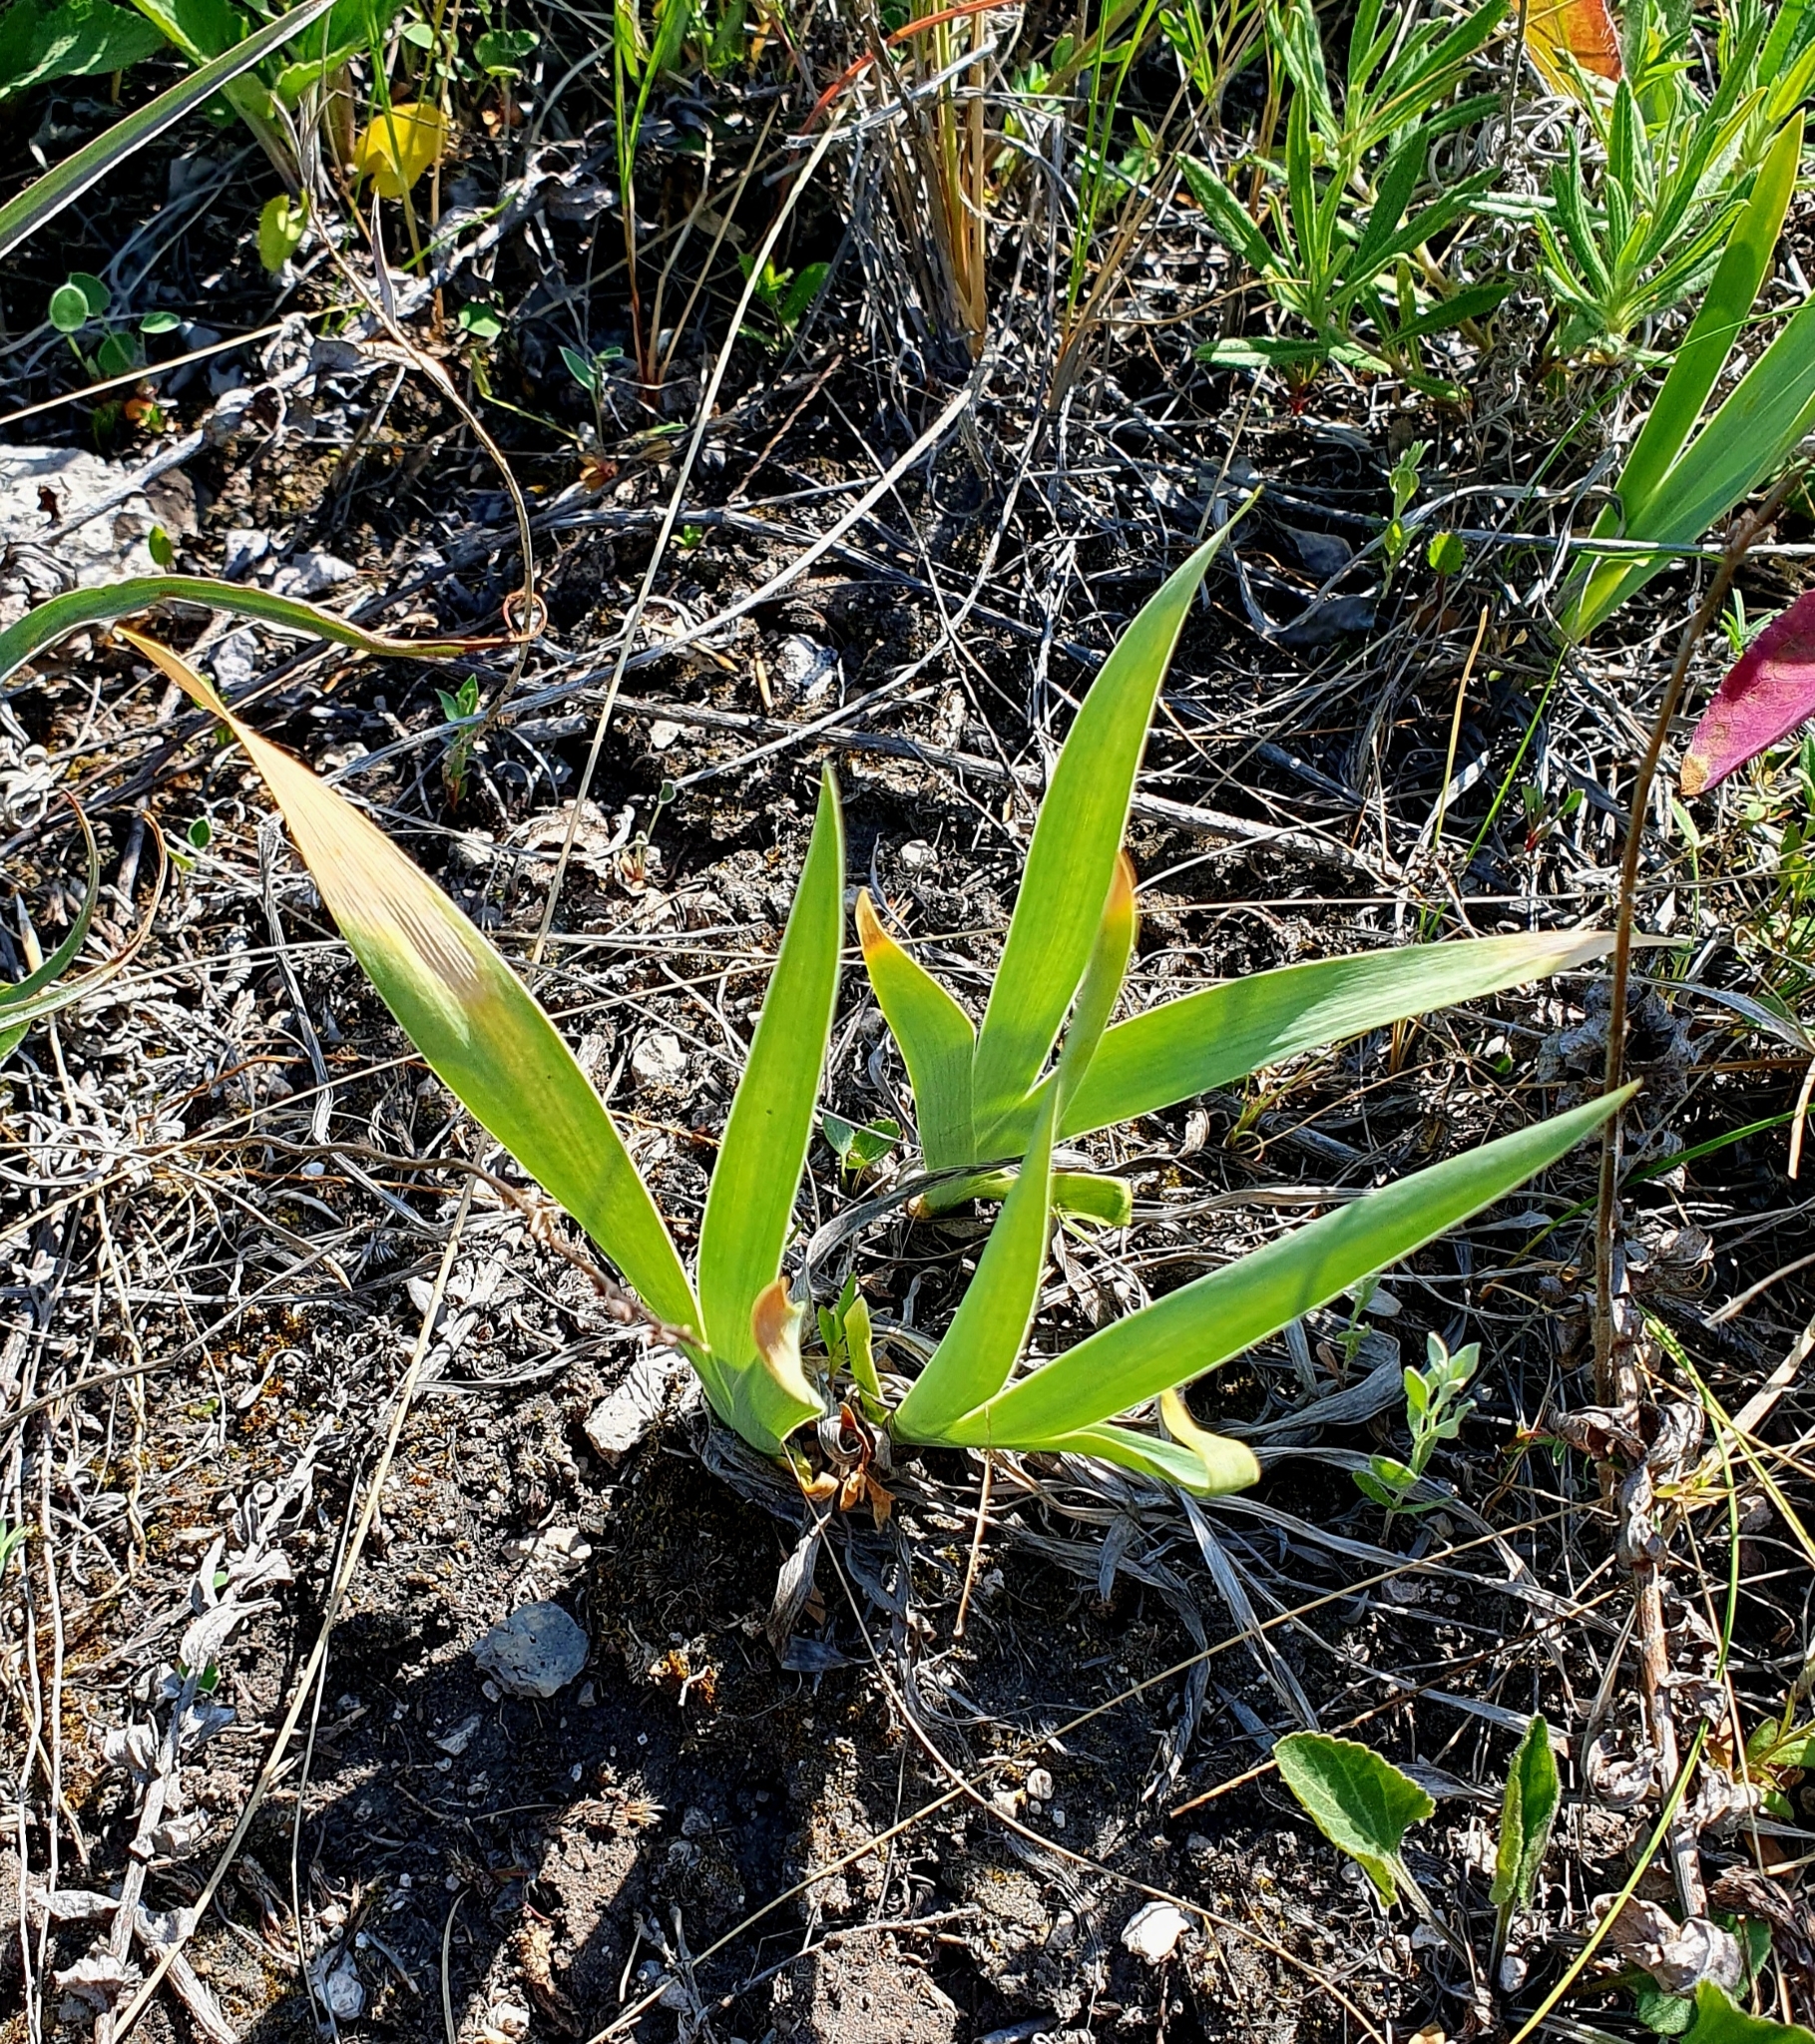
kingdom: Plantae
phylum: Tracheophyta
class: Liliopsida
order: Asparagales
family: Iridaceae
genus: Iris
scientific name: Iris pumila
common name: Dwarf iris
